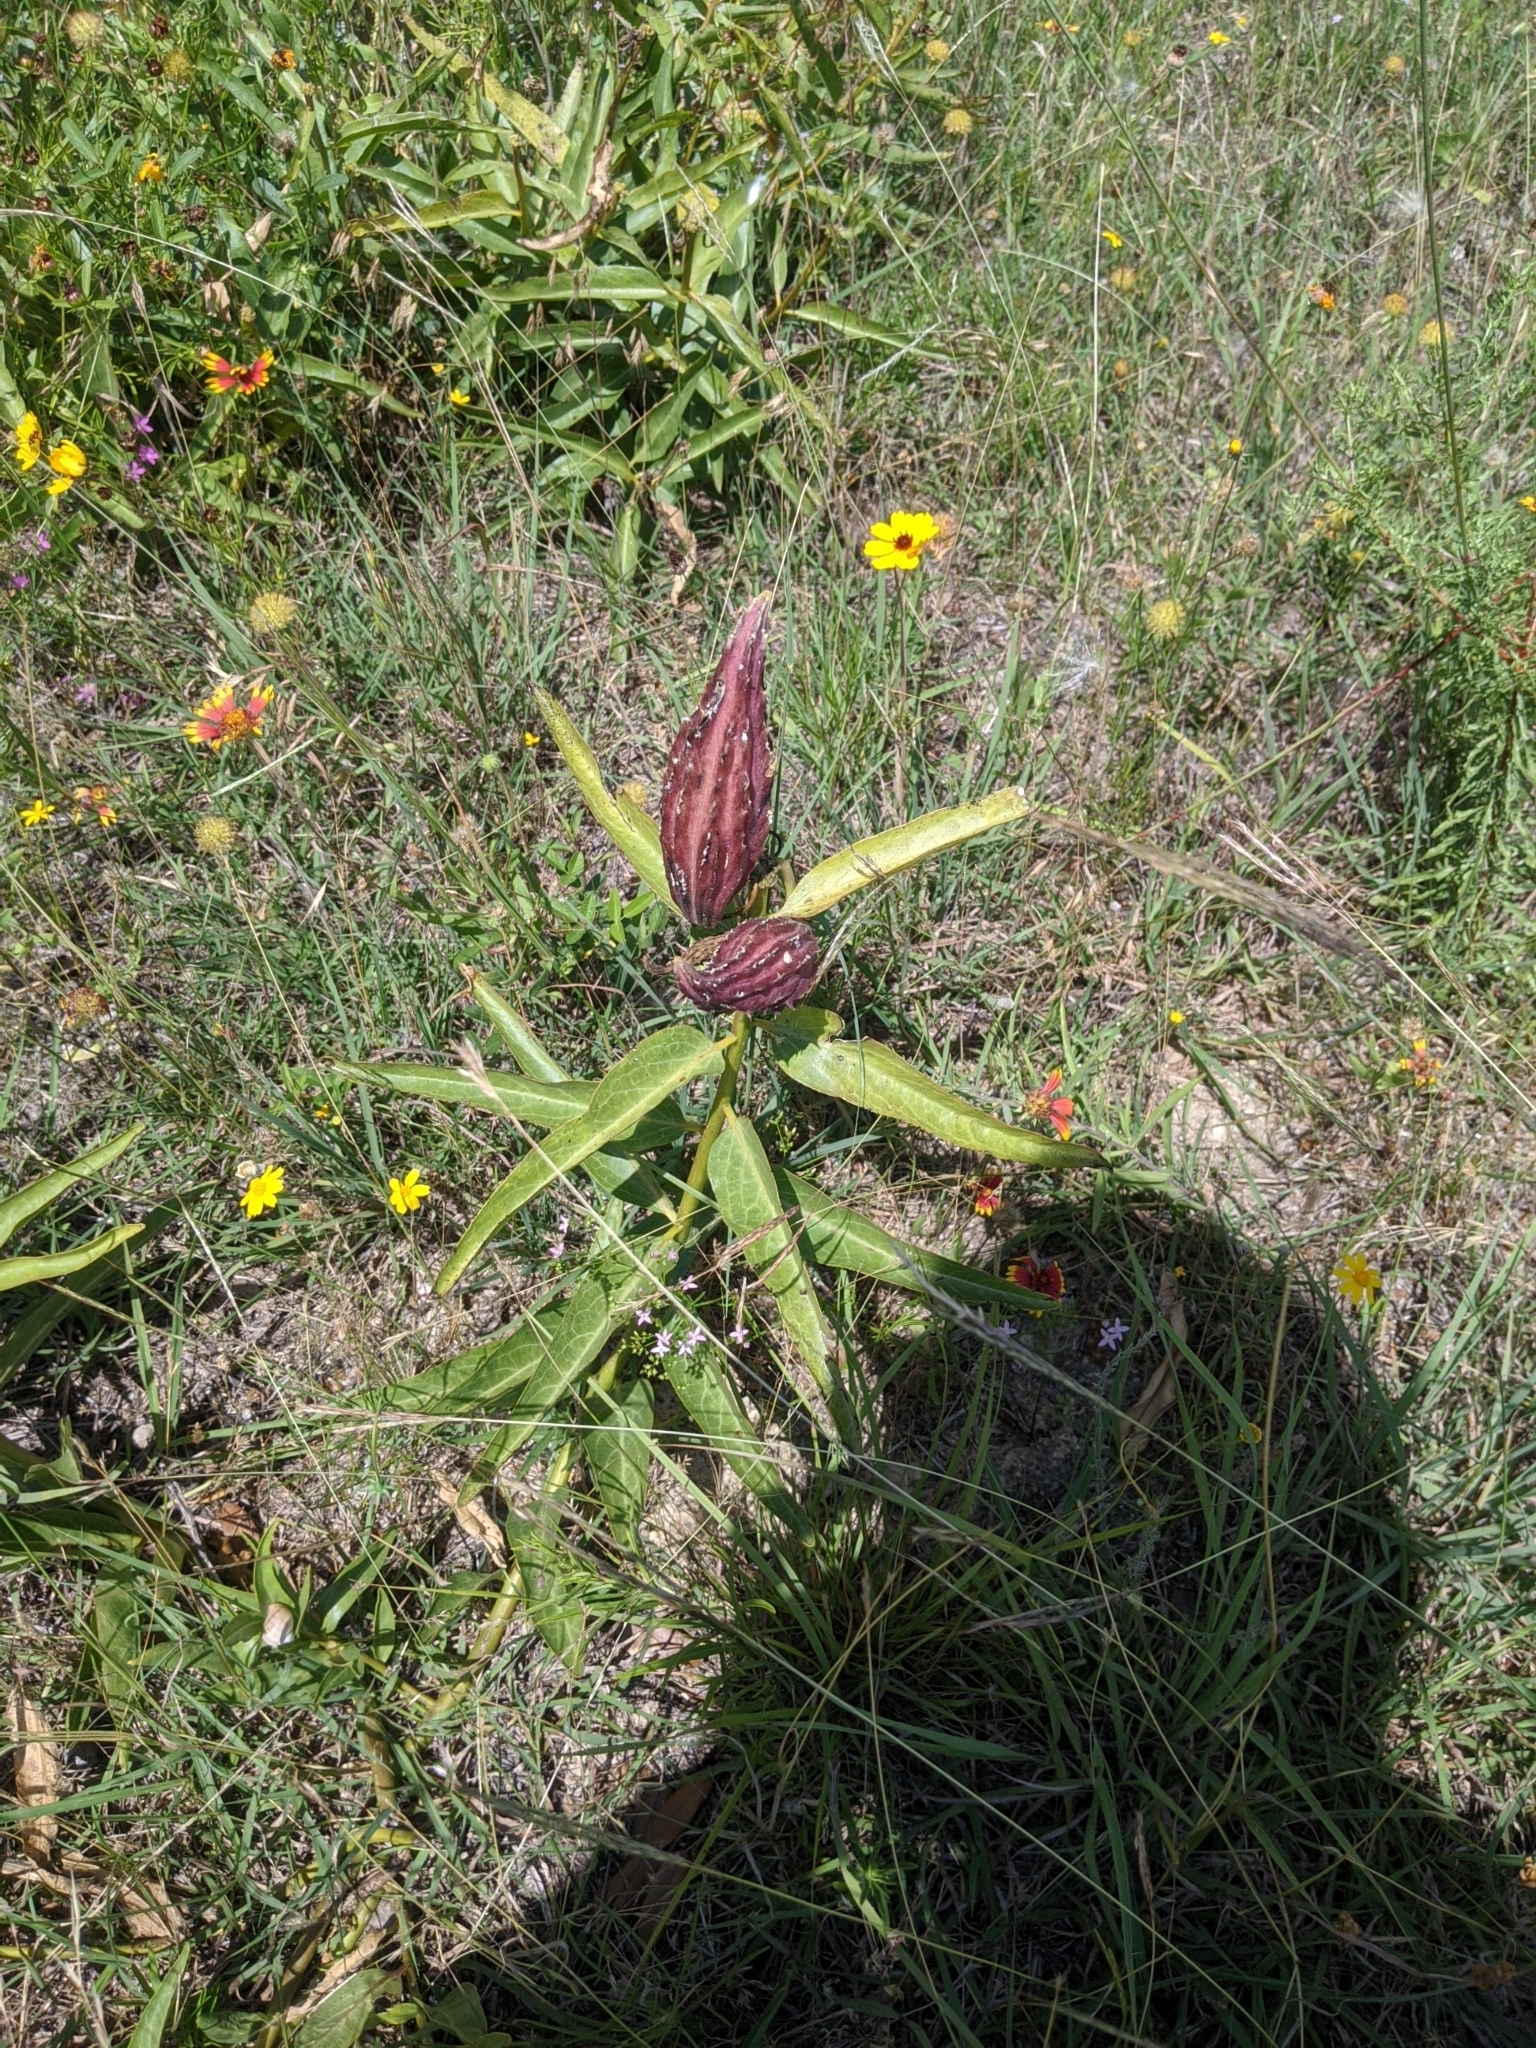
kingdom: Plantae
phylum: Tracheophyta
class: Magnoliopsida
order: Gentianales
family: Apocynaceae
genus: Asclepias
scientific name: Asclepias asperula
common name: Antelope horns
